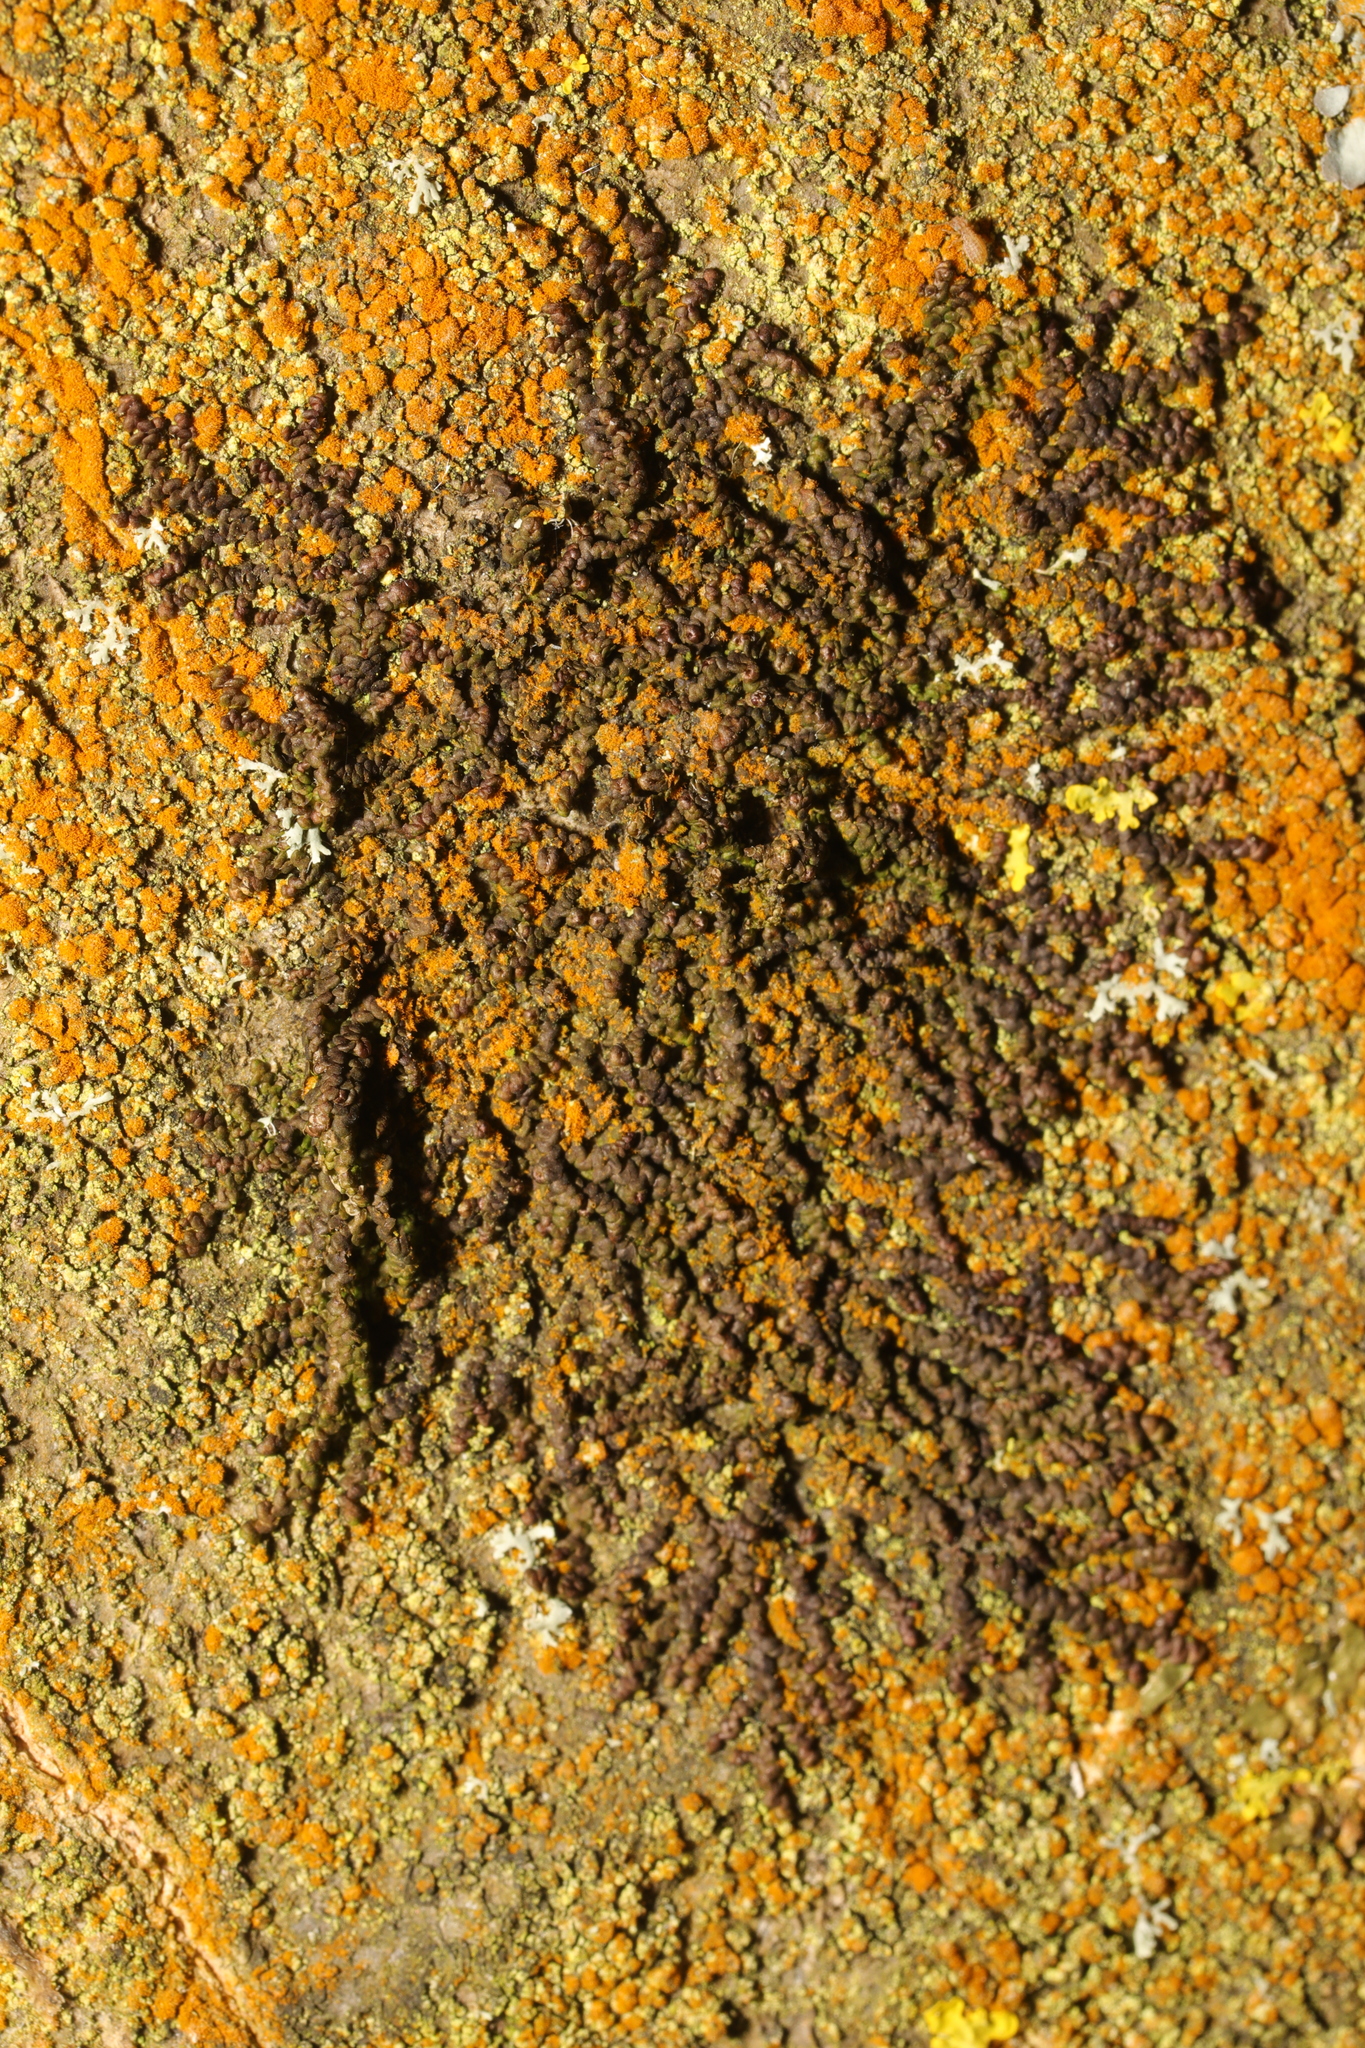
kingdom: Plantae
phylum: Marchantiophyta
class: Jungermanniopsida
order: Porellales
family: Frullaniaceae
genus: Frullania
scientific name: Frullania dilatata
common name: Dilated scalewort
